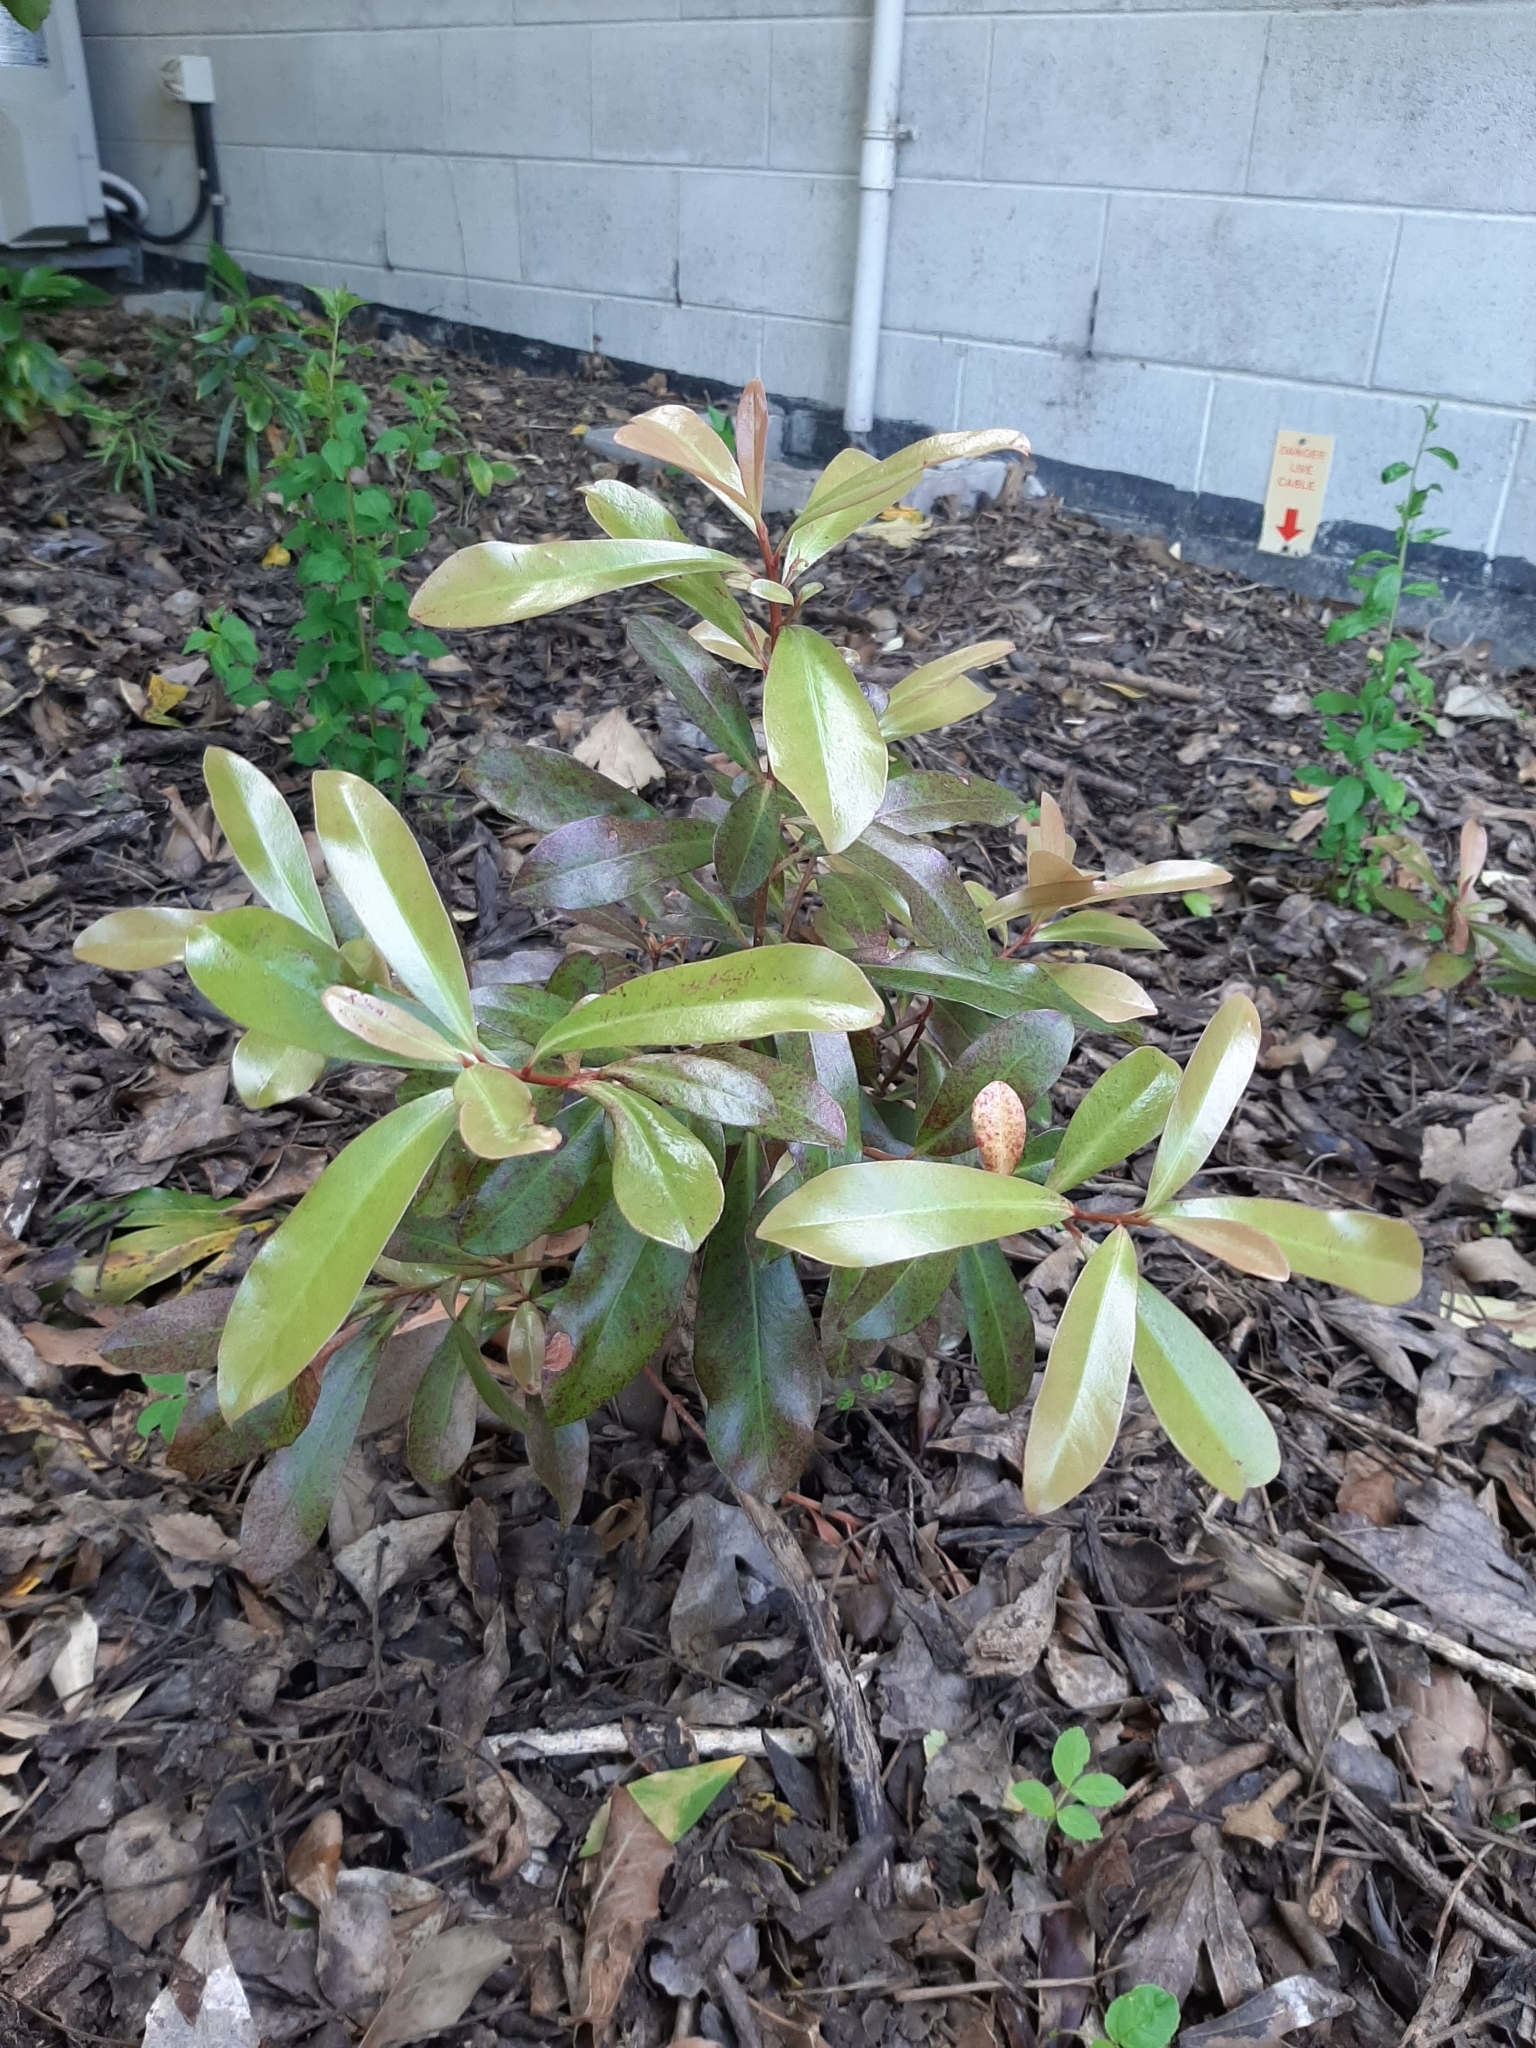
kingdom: Plantae
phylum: Tracheophyta
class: Magnoliopsida
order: Ericales
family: Primulaceae
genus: Myrsine
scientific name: Myrsine salicina
